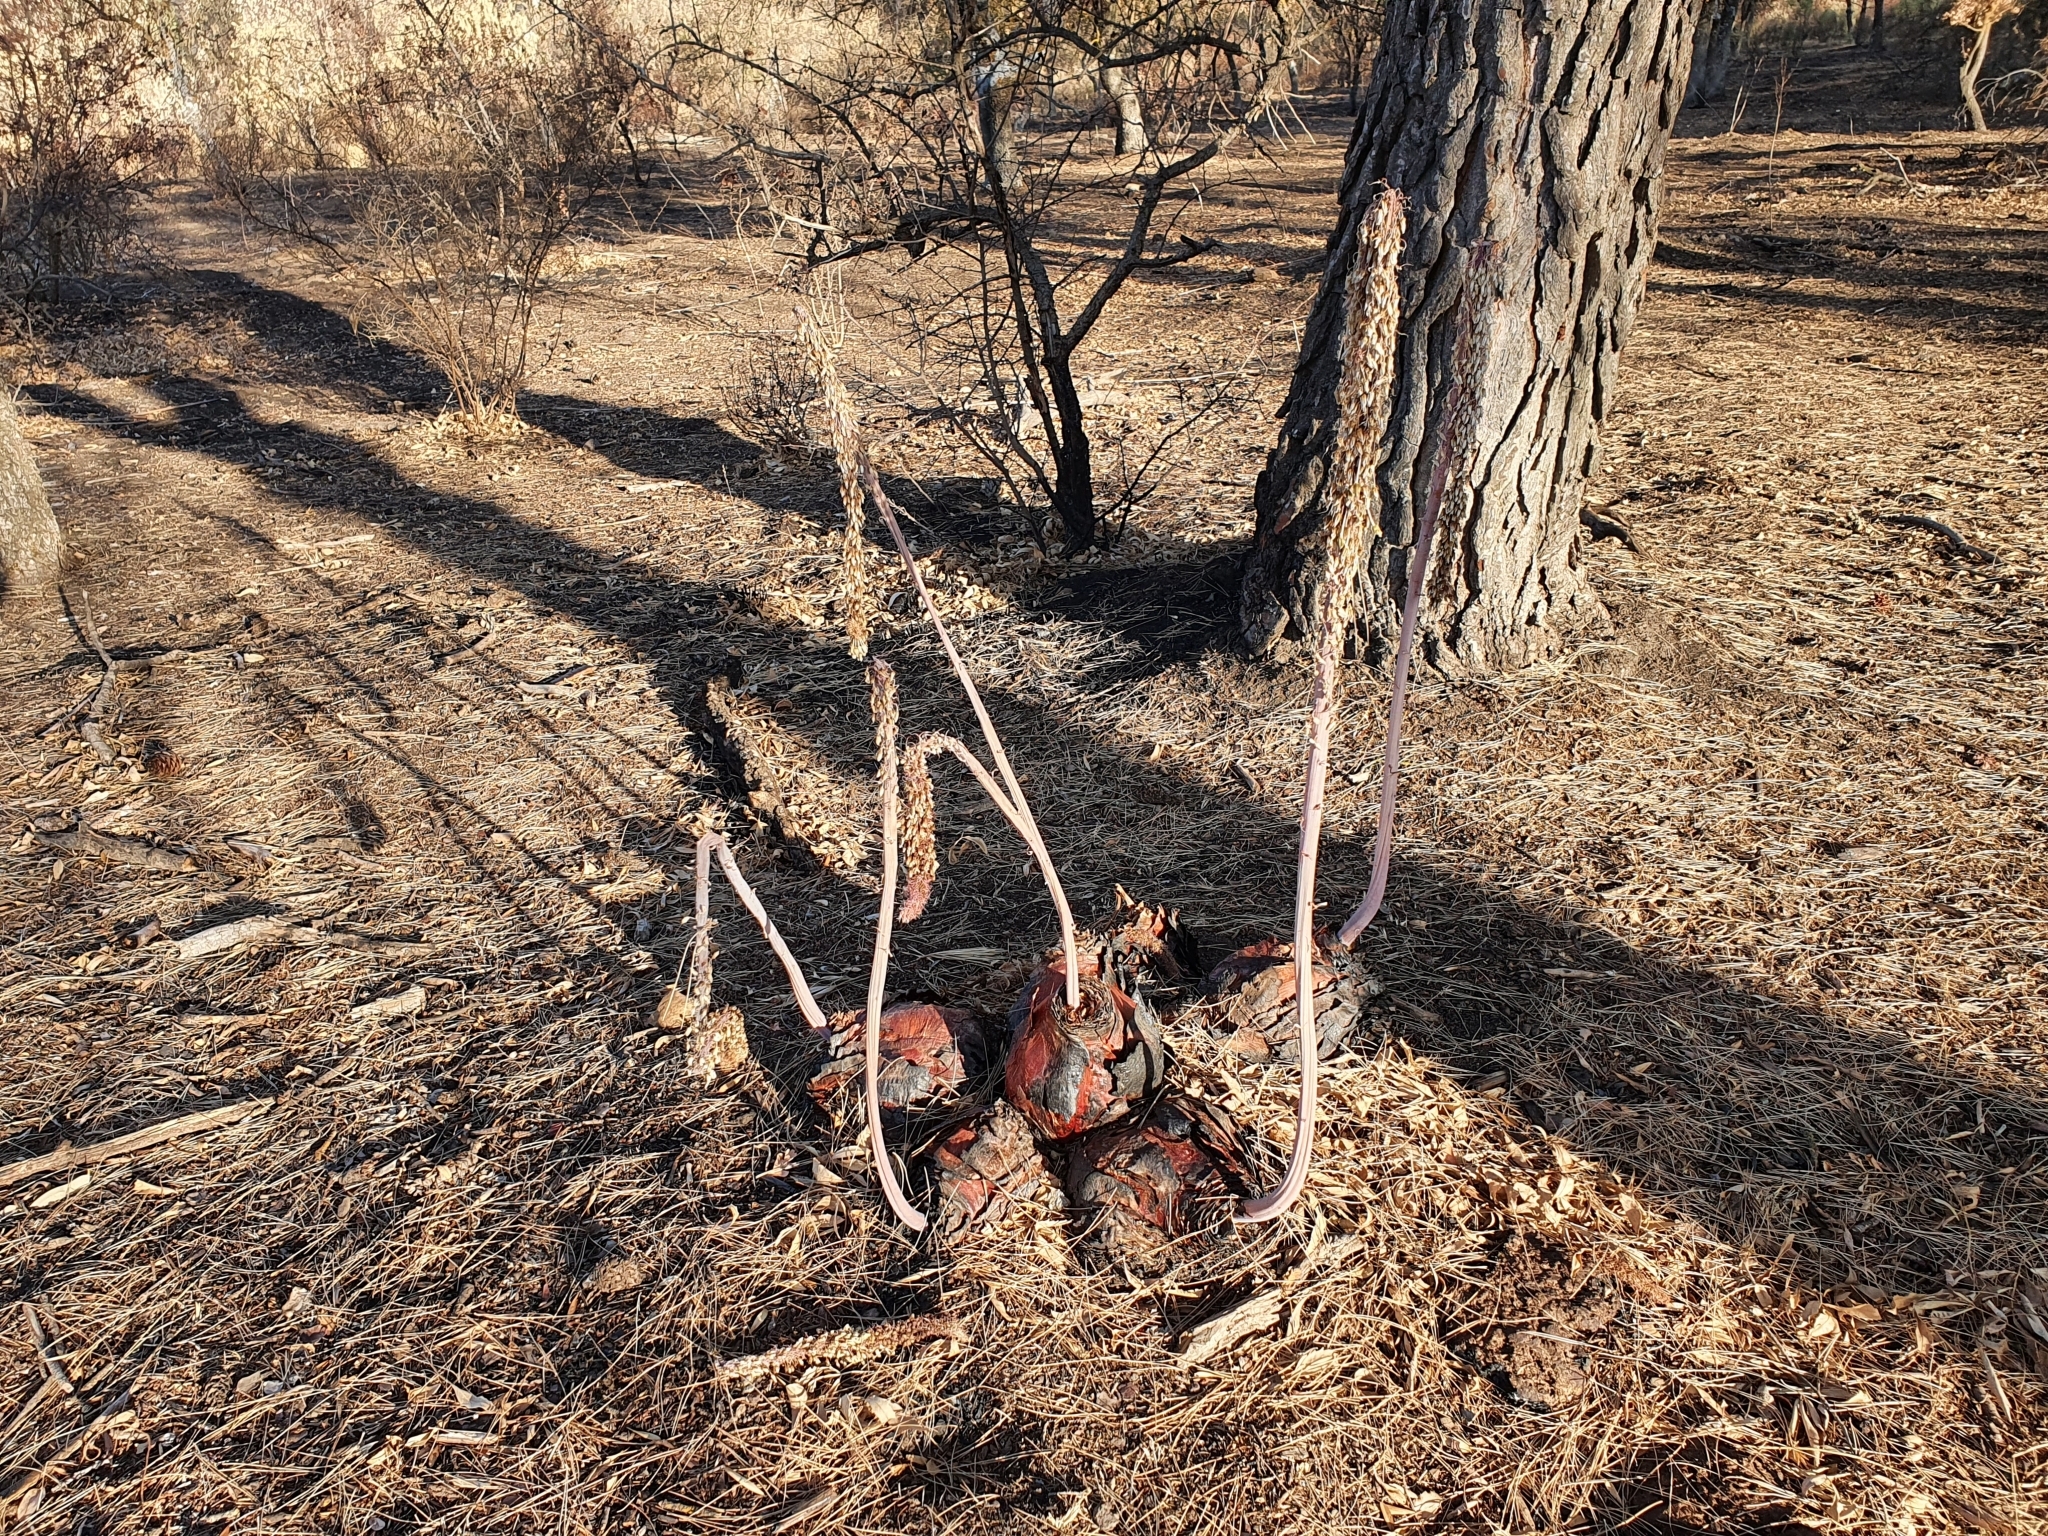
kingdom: Plantae
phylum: Tracheophyta
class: Liliopsida
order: Asparagales
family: Asparagaceae
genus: Drimia
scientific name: Drimia numidica
